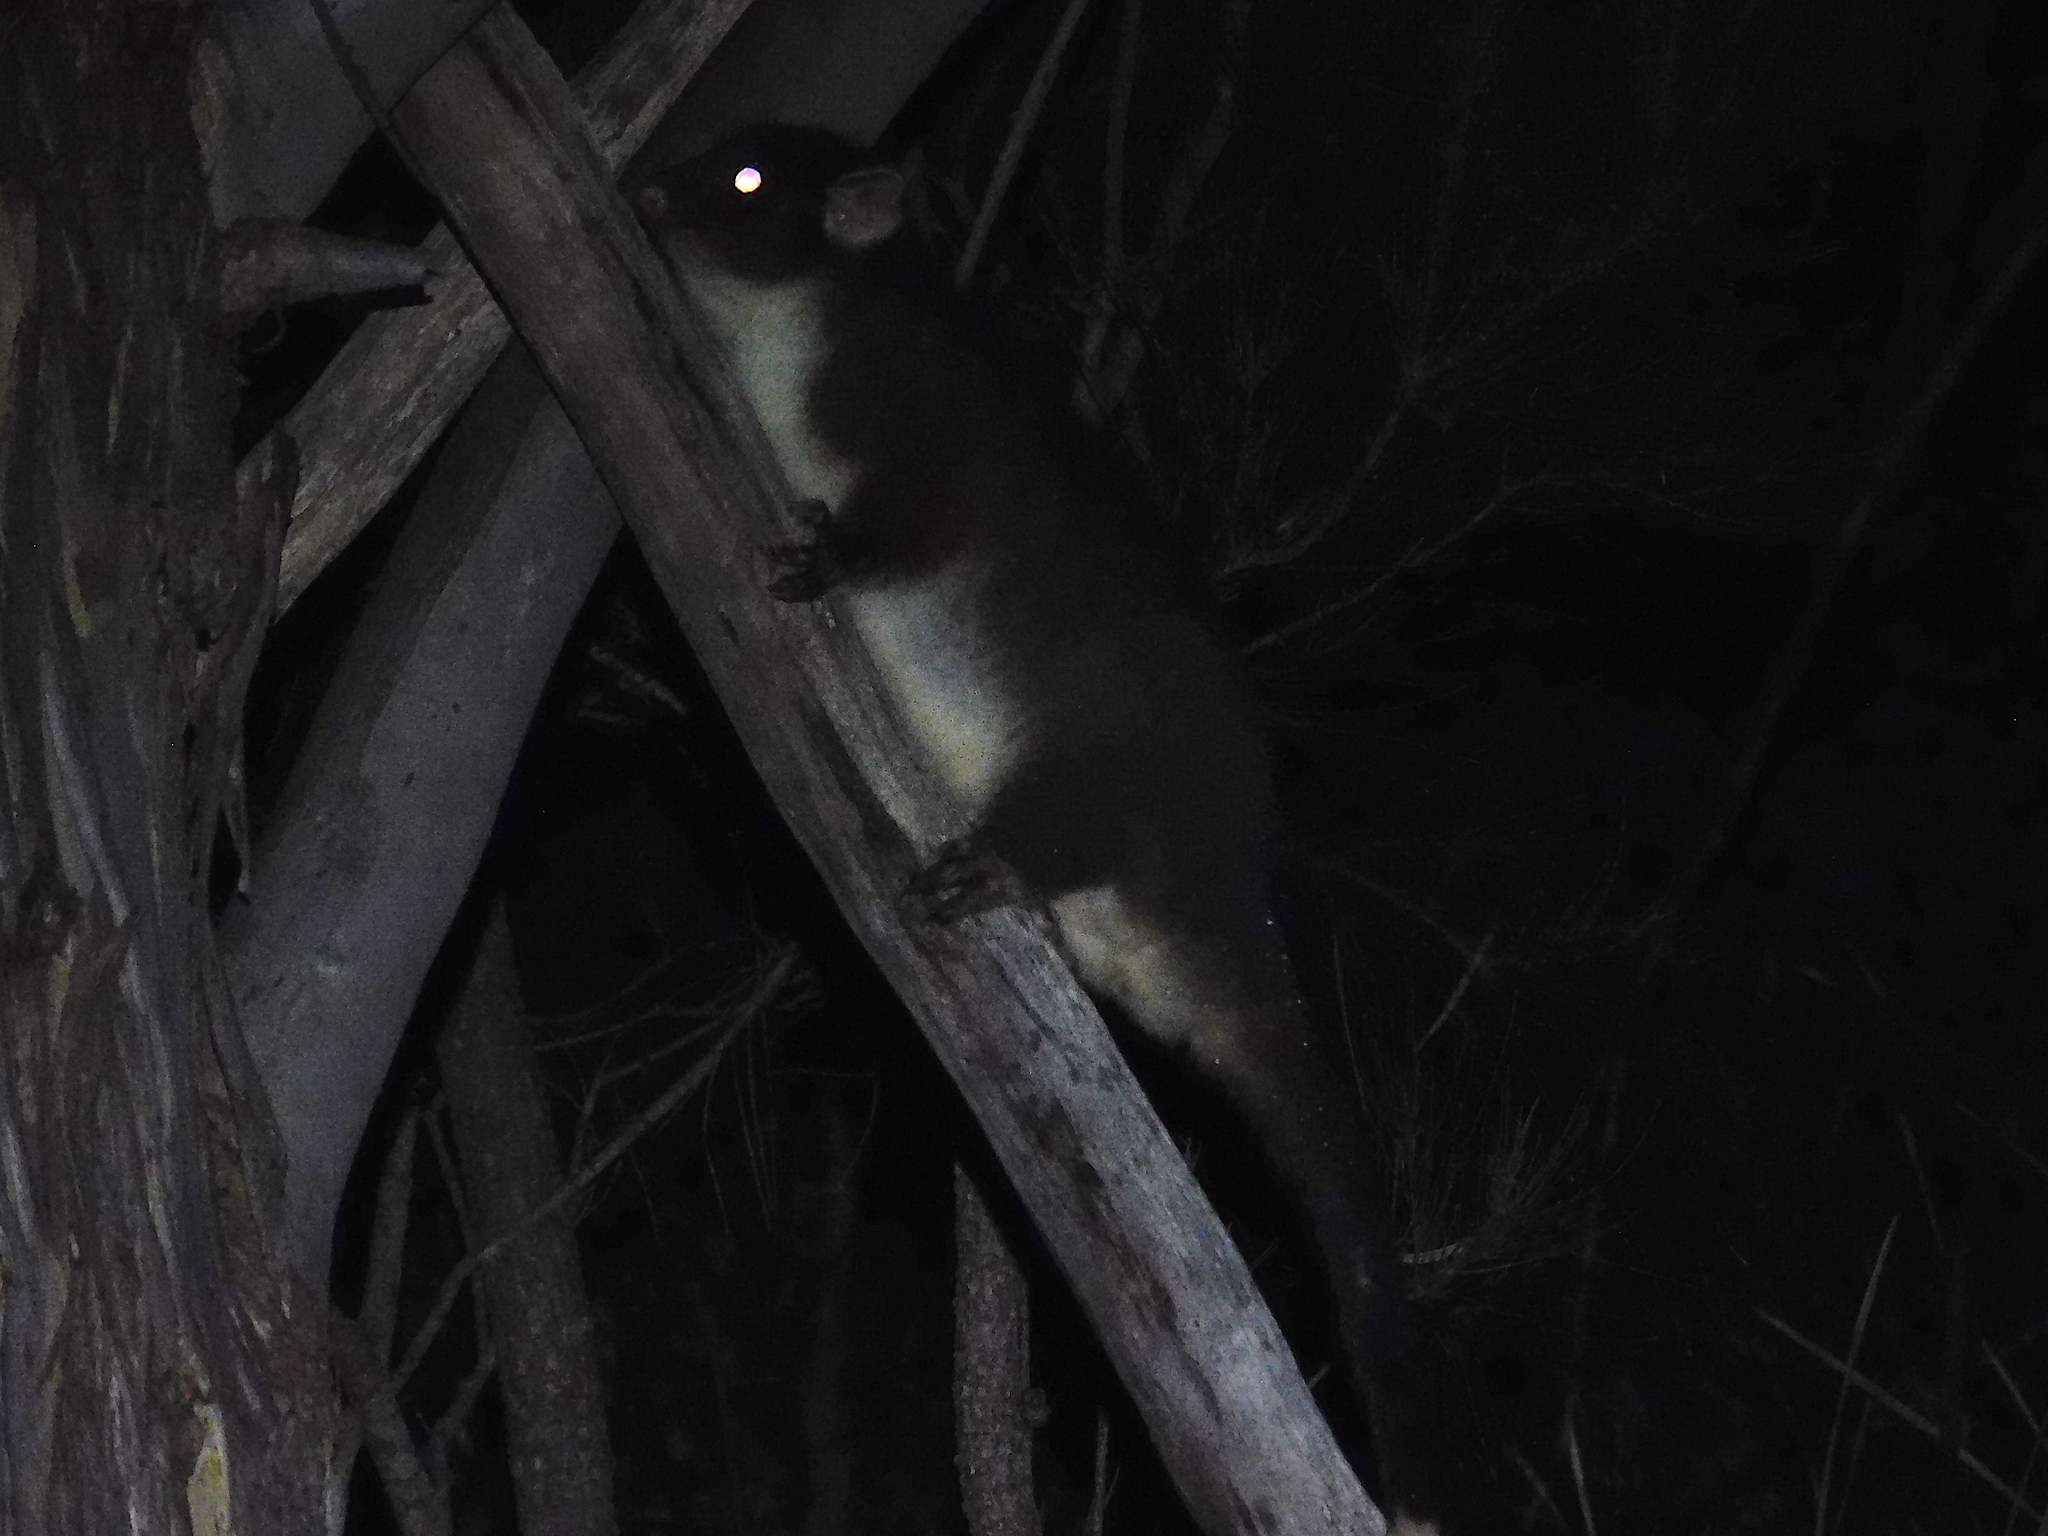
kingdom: Animalia
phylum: Chordata
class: Mammalia
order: Diprotodontia
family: Pseudocheiridae
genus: Pseudocheirus
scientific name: Pseudocheirus peregrinus
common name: Common ringtail possum
